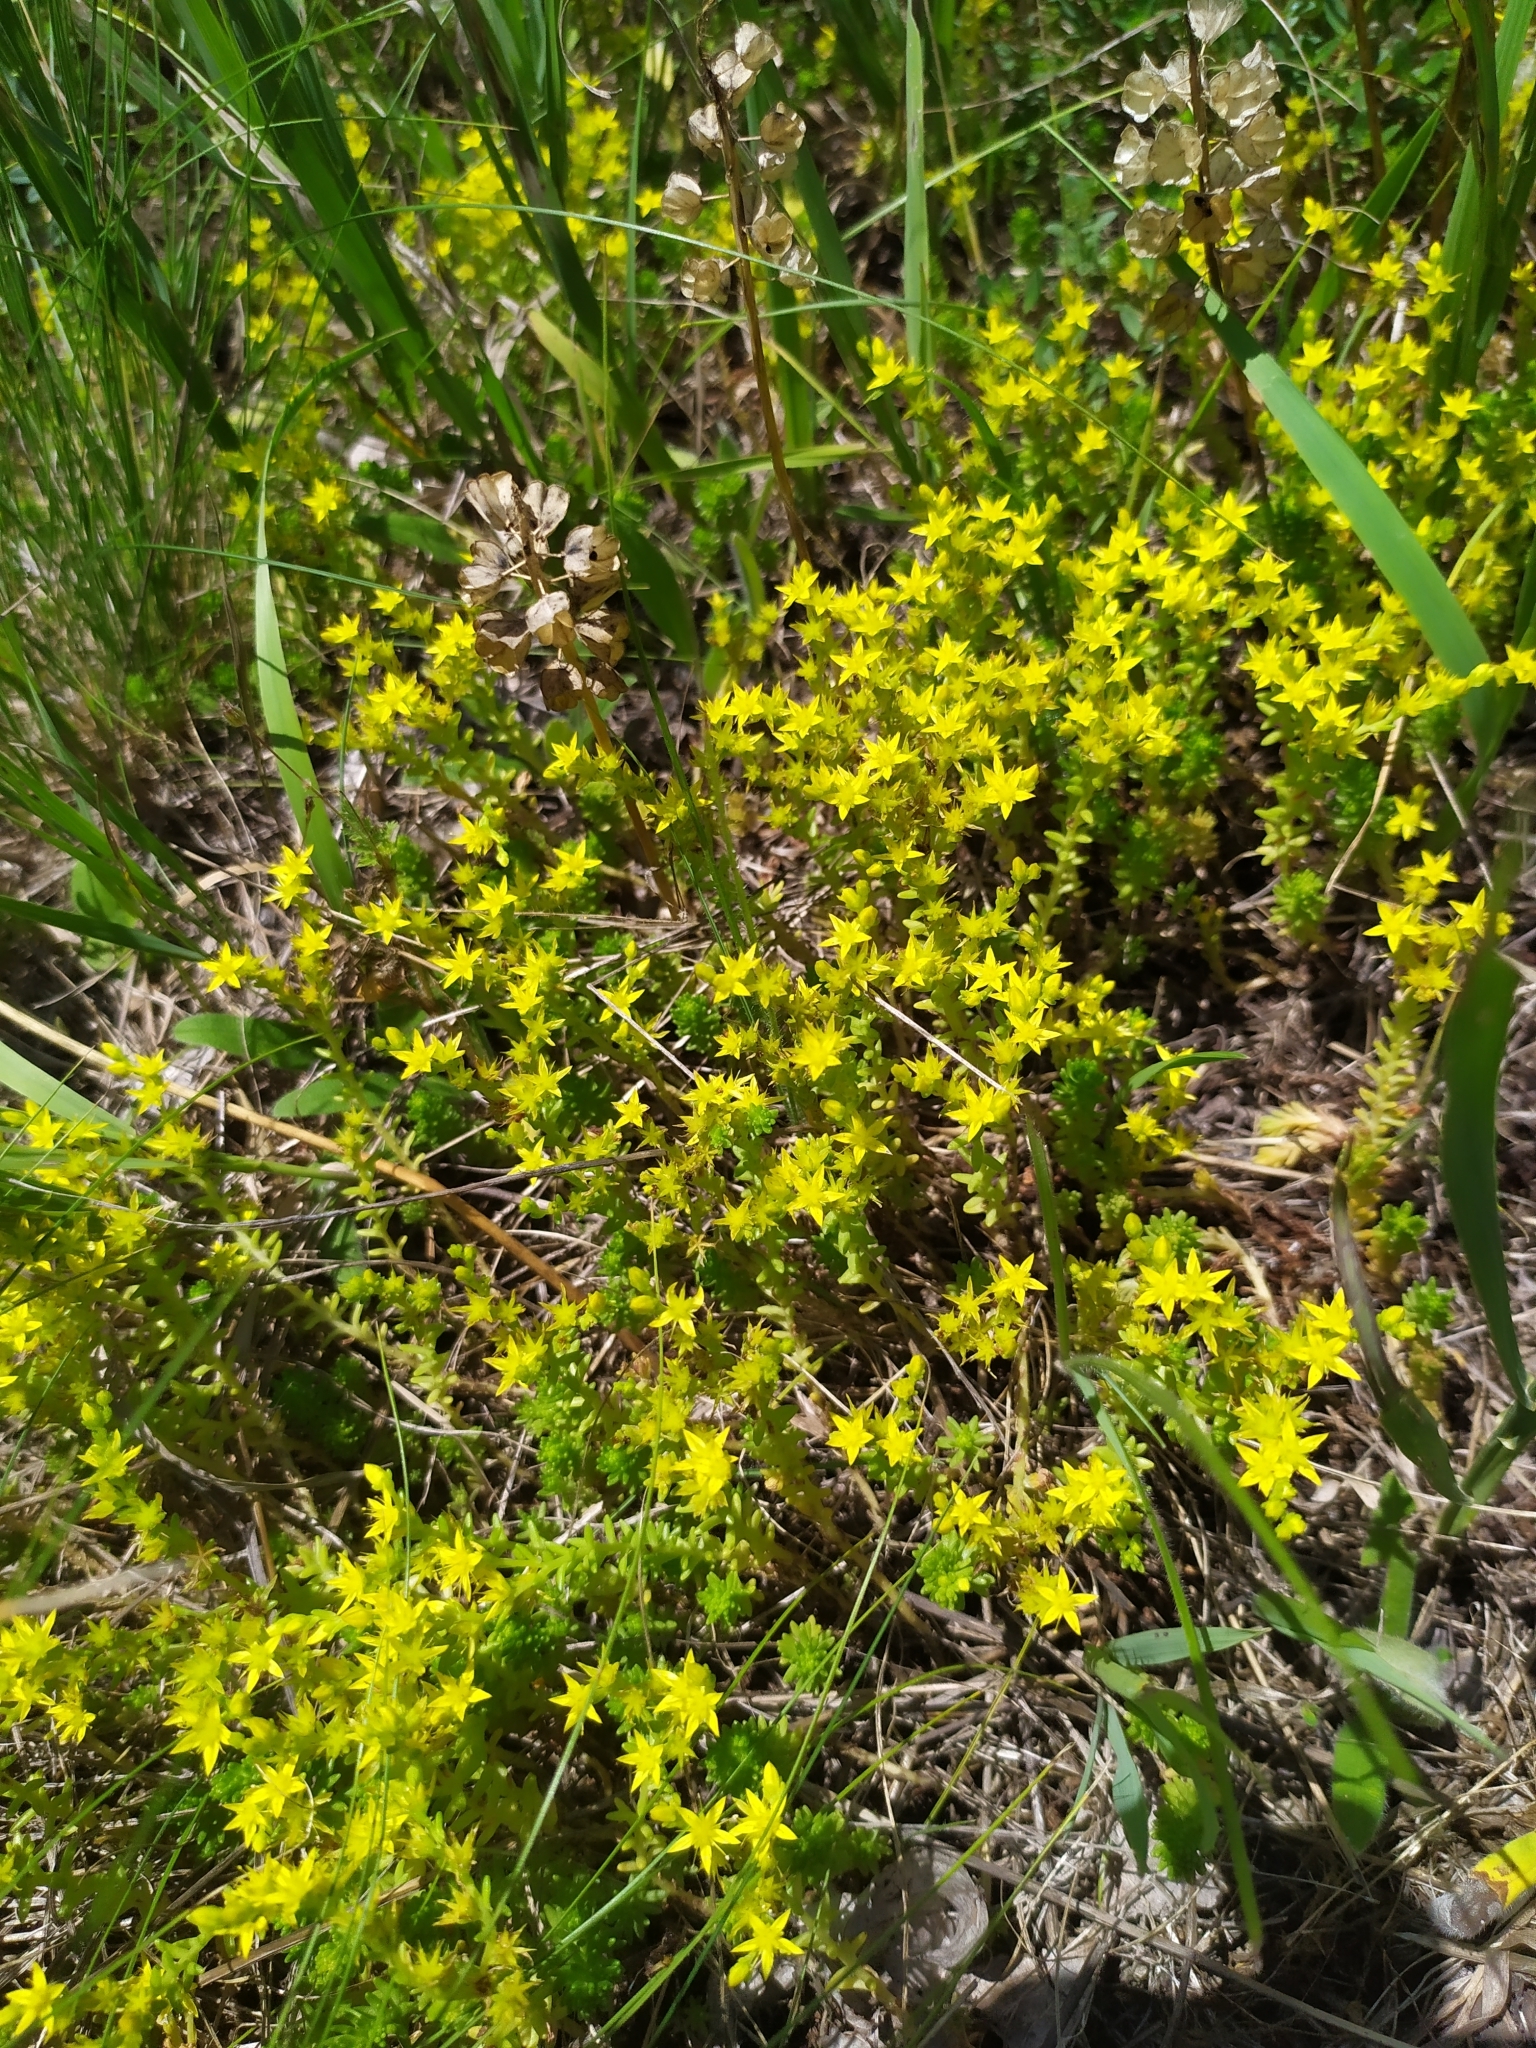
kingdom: Plantae
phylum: Tracheophyta
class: Magnoliopsida
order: Saxifragales
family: Crassulaceae
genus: Sedum
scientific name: Sedum sexangulare
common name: Tasteless stonecrop
